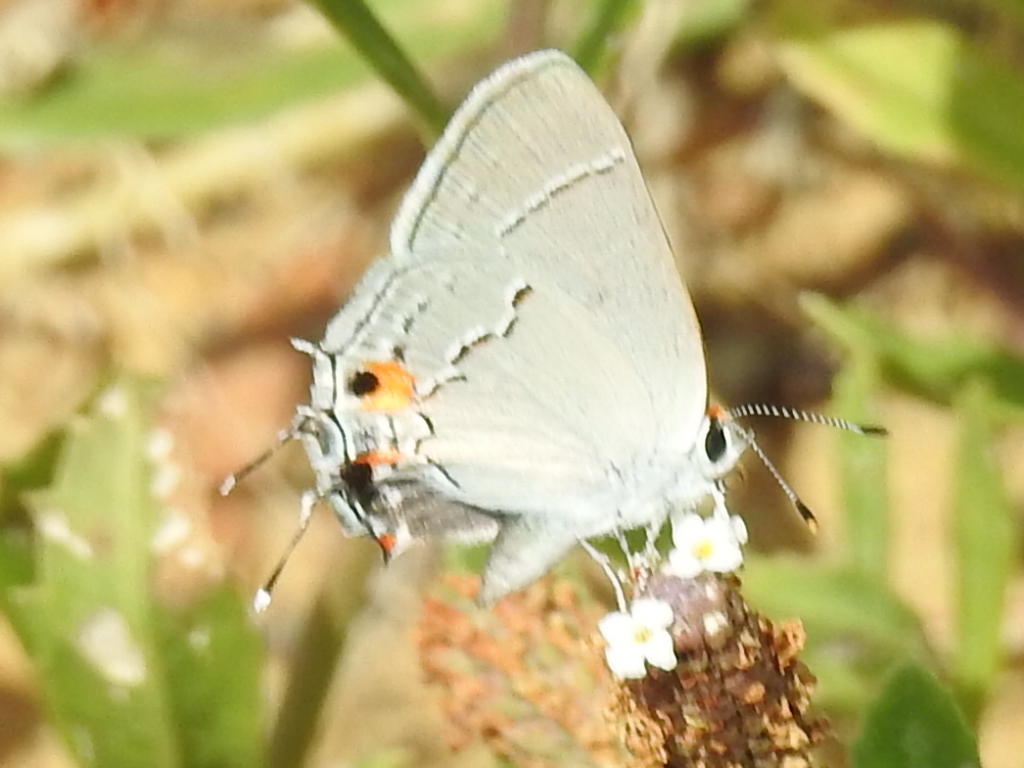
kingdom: Animalia
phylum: Arthropoda
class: Insecta
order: Lepidoptera
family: Lycaenidae
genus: Strymon
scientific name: Strymon melinus
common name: Gray hairstreak
